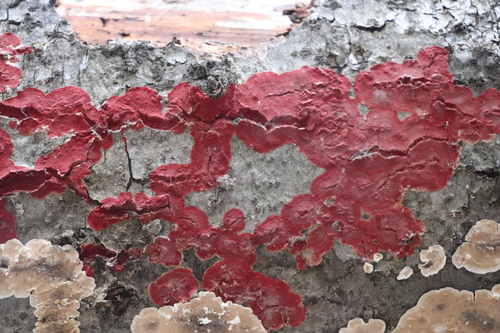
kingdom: Fungi
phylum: Basidiomycota
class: Agaricomycetes
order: Hymenochaetales
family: Hymenochaetaceae
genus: Hymenochaete
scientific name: Hymenochaete cruenta
